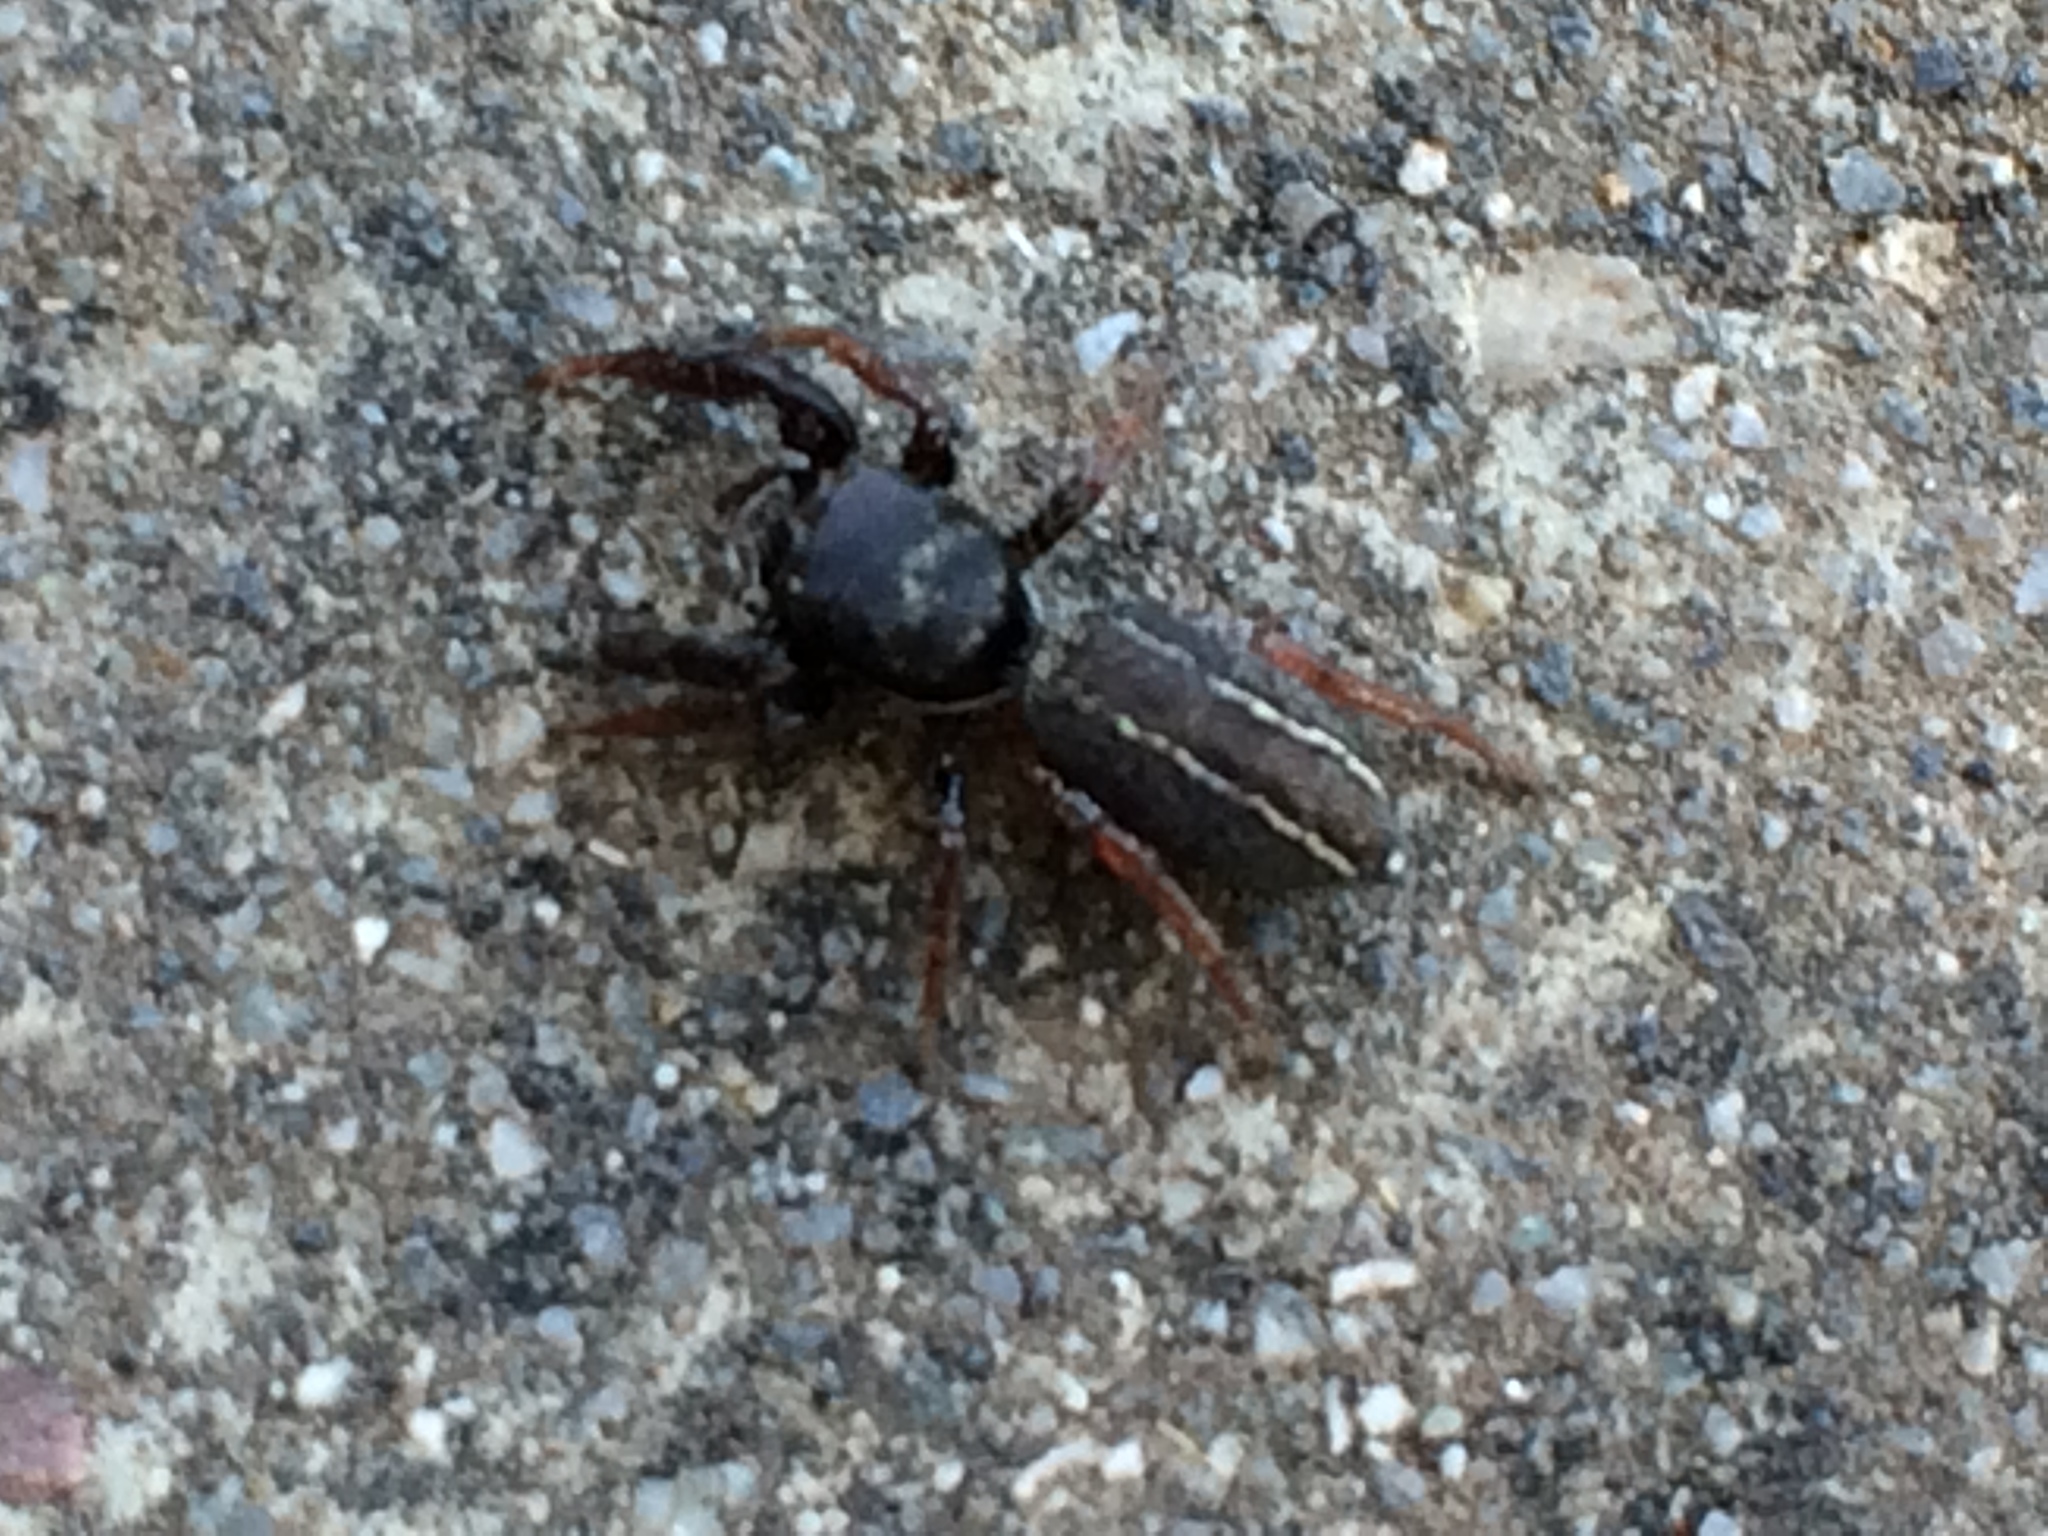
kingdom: Animalia
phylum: Arthropoda
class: Arachnida
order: Araneae
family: Salticidae
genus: Metacyrba
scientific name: Metacyrba taeniola
